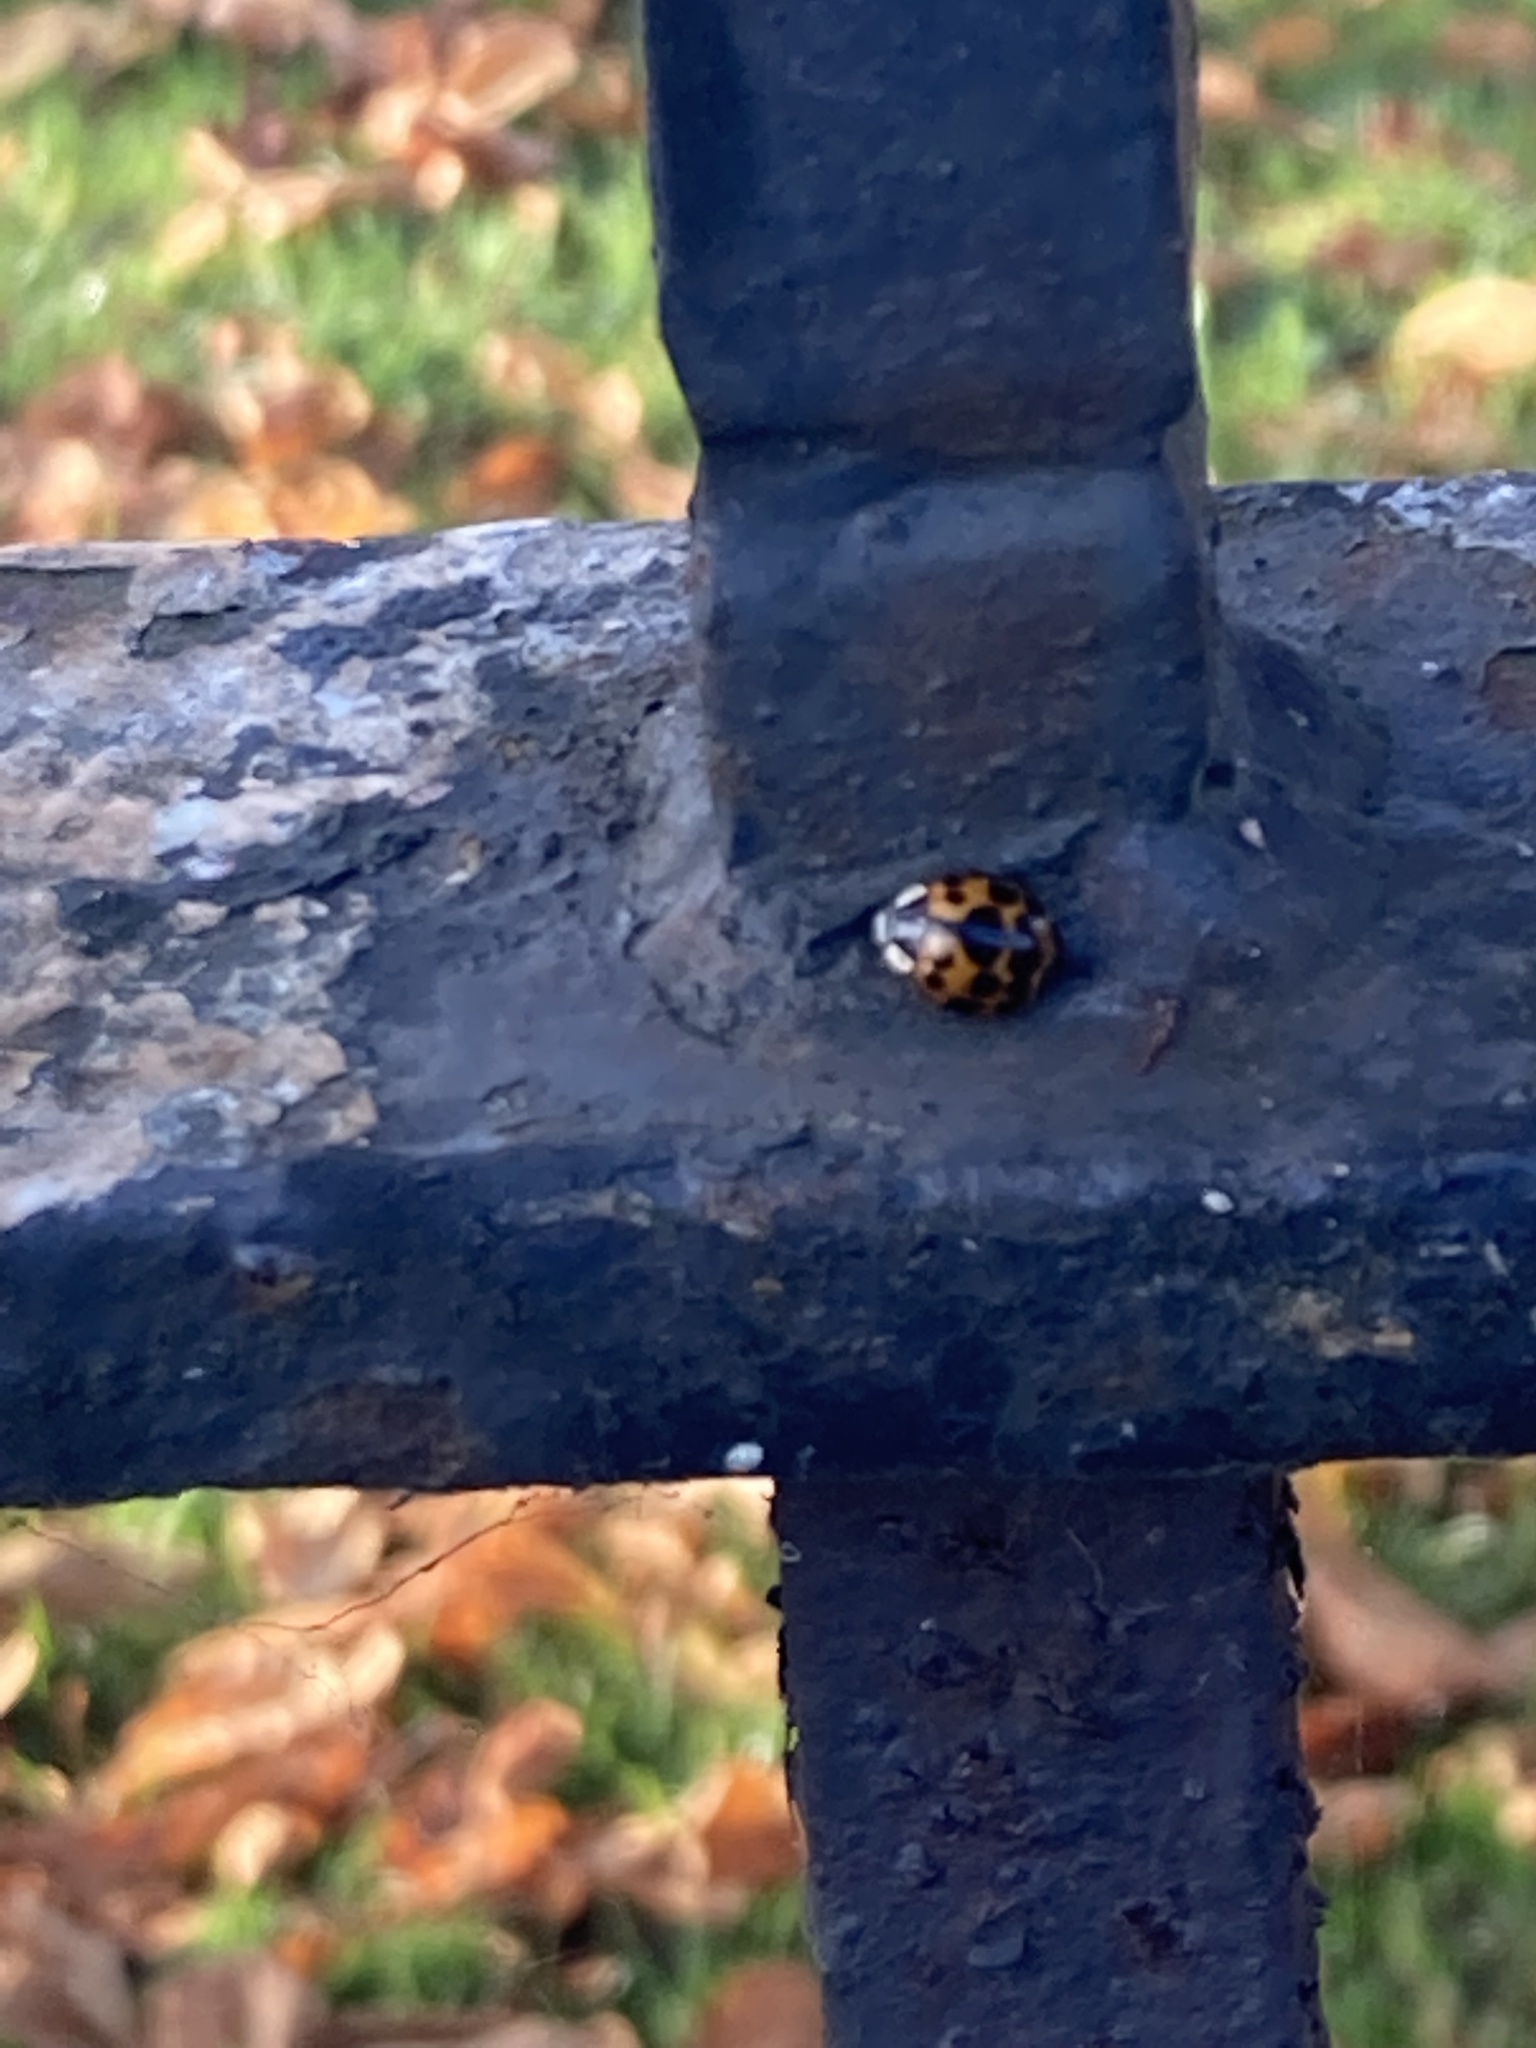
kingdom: Animalia
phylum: Arthropoda
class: Insecta
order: Coleoptera
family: Coccinellidae
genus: Harmonia
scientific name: Harmonia axyridis
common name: Harlequin ladybird
